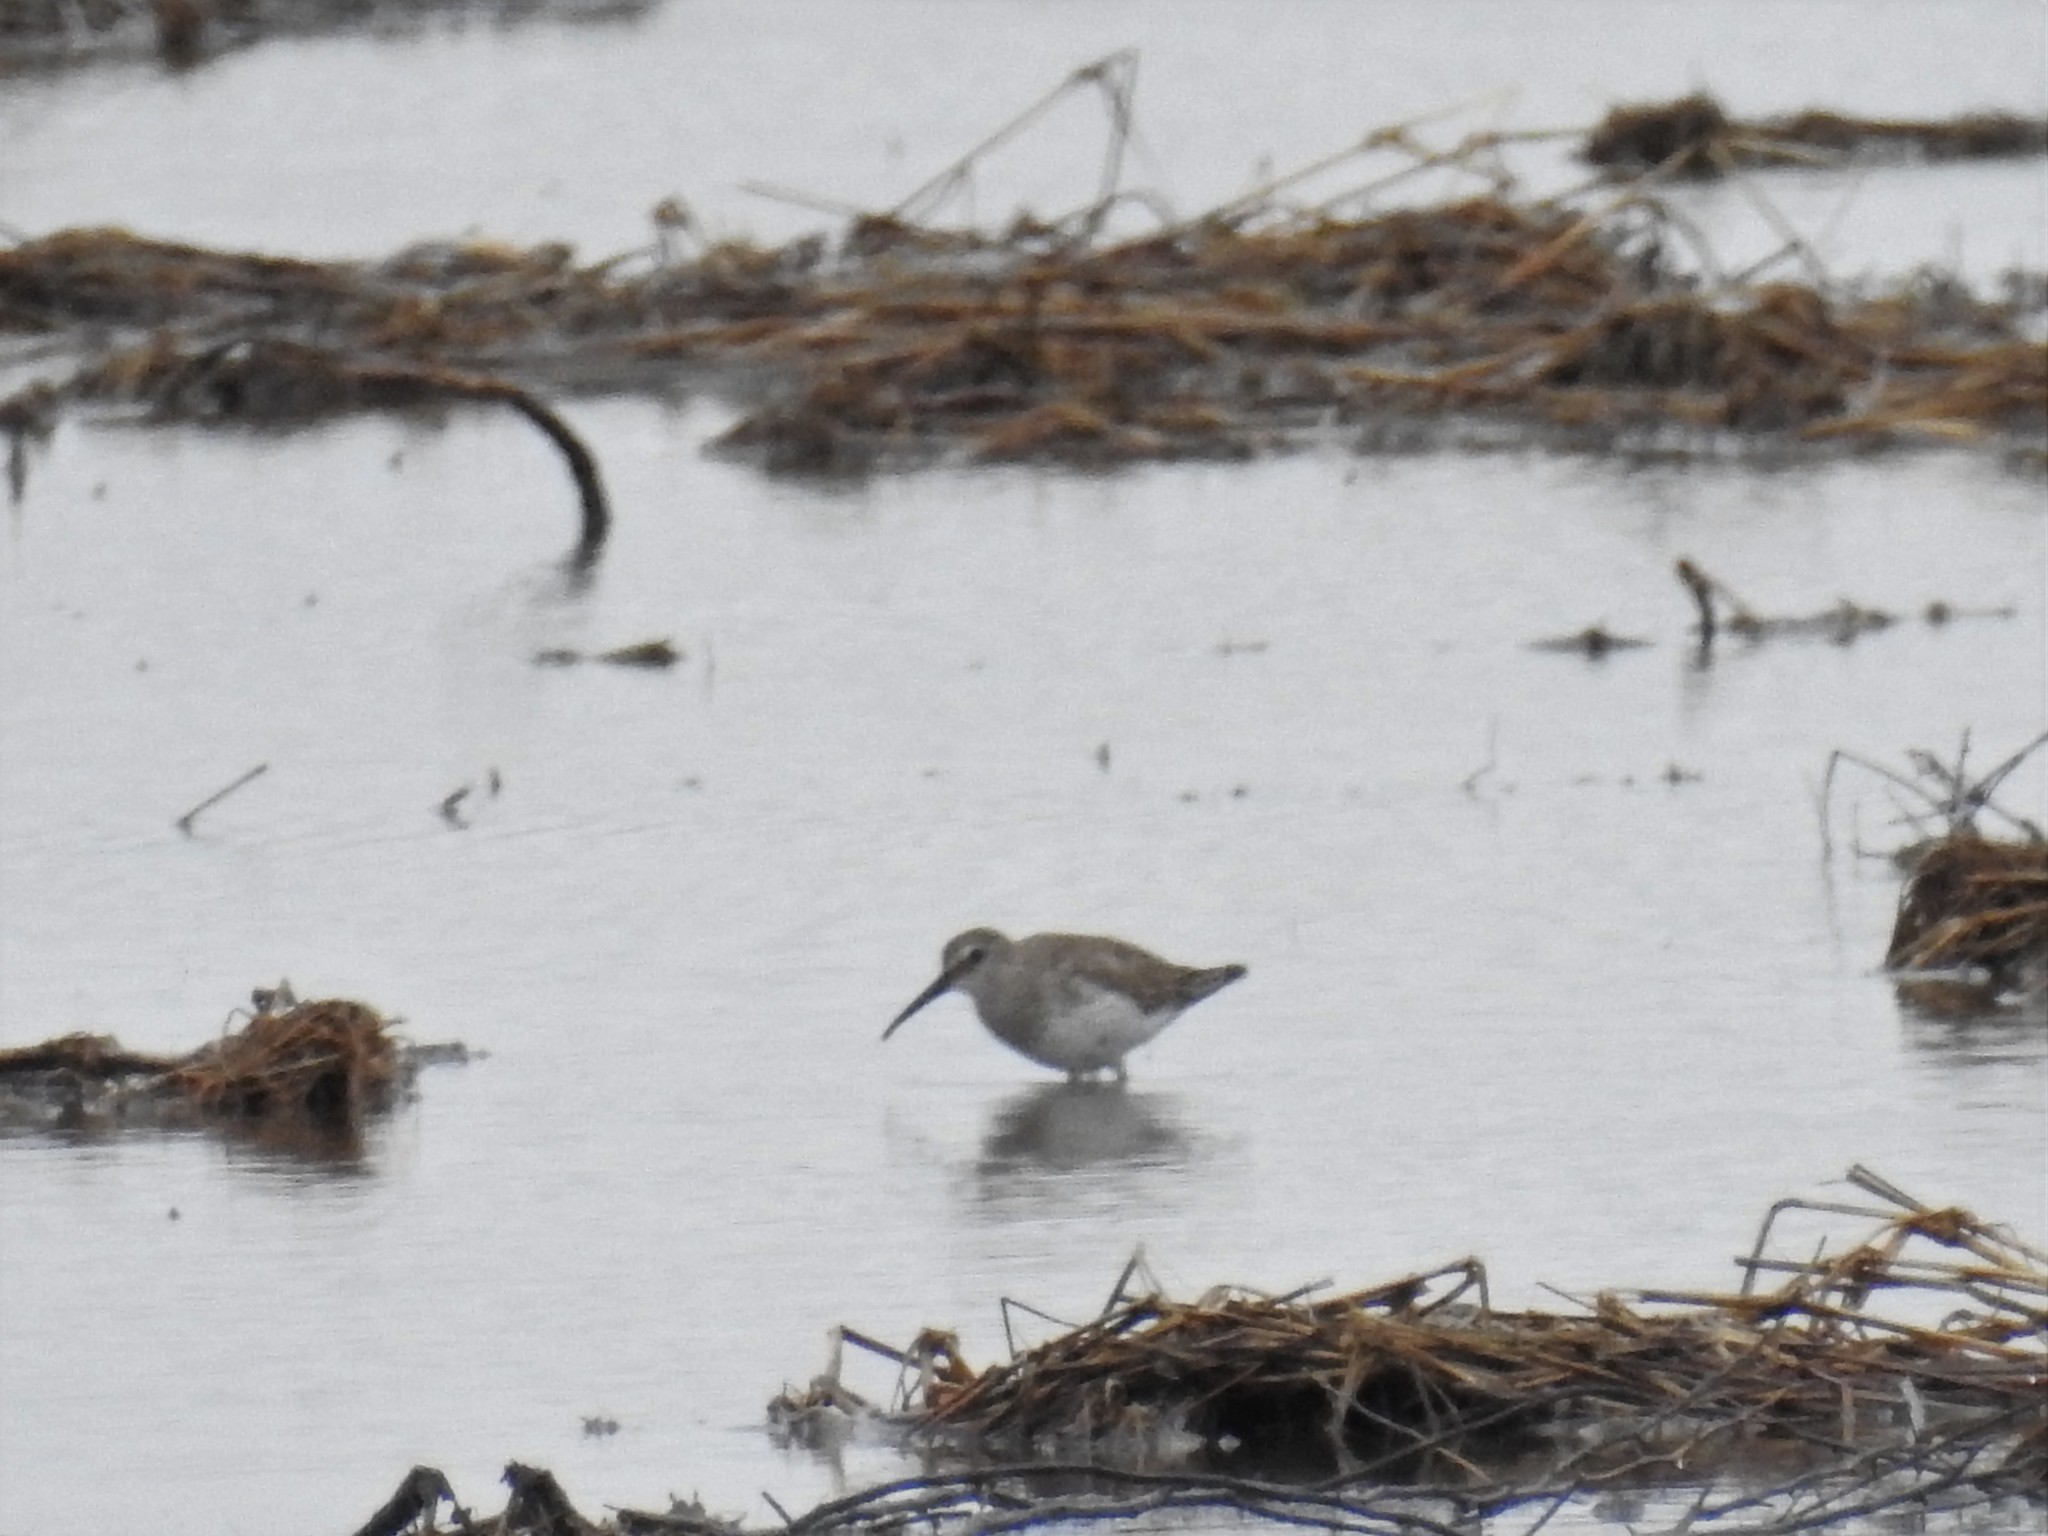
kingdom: Animalia
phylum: Chordata
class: Aves
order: Charadriiformes
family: Scolopacidae
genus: Calidris
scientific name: Calidris alpina
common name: Dunlin
